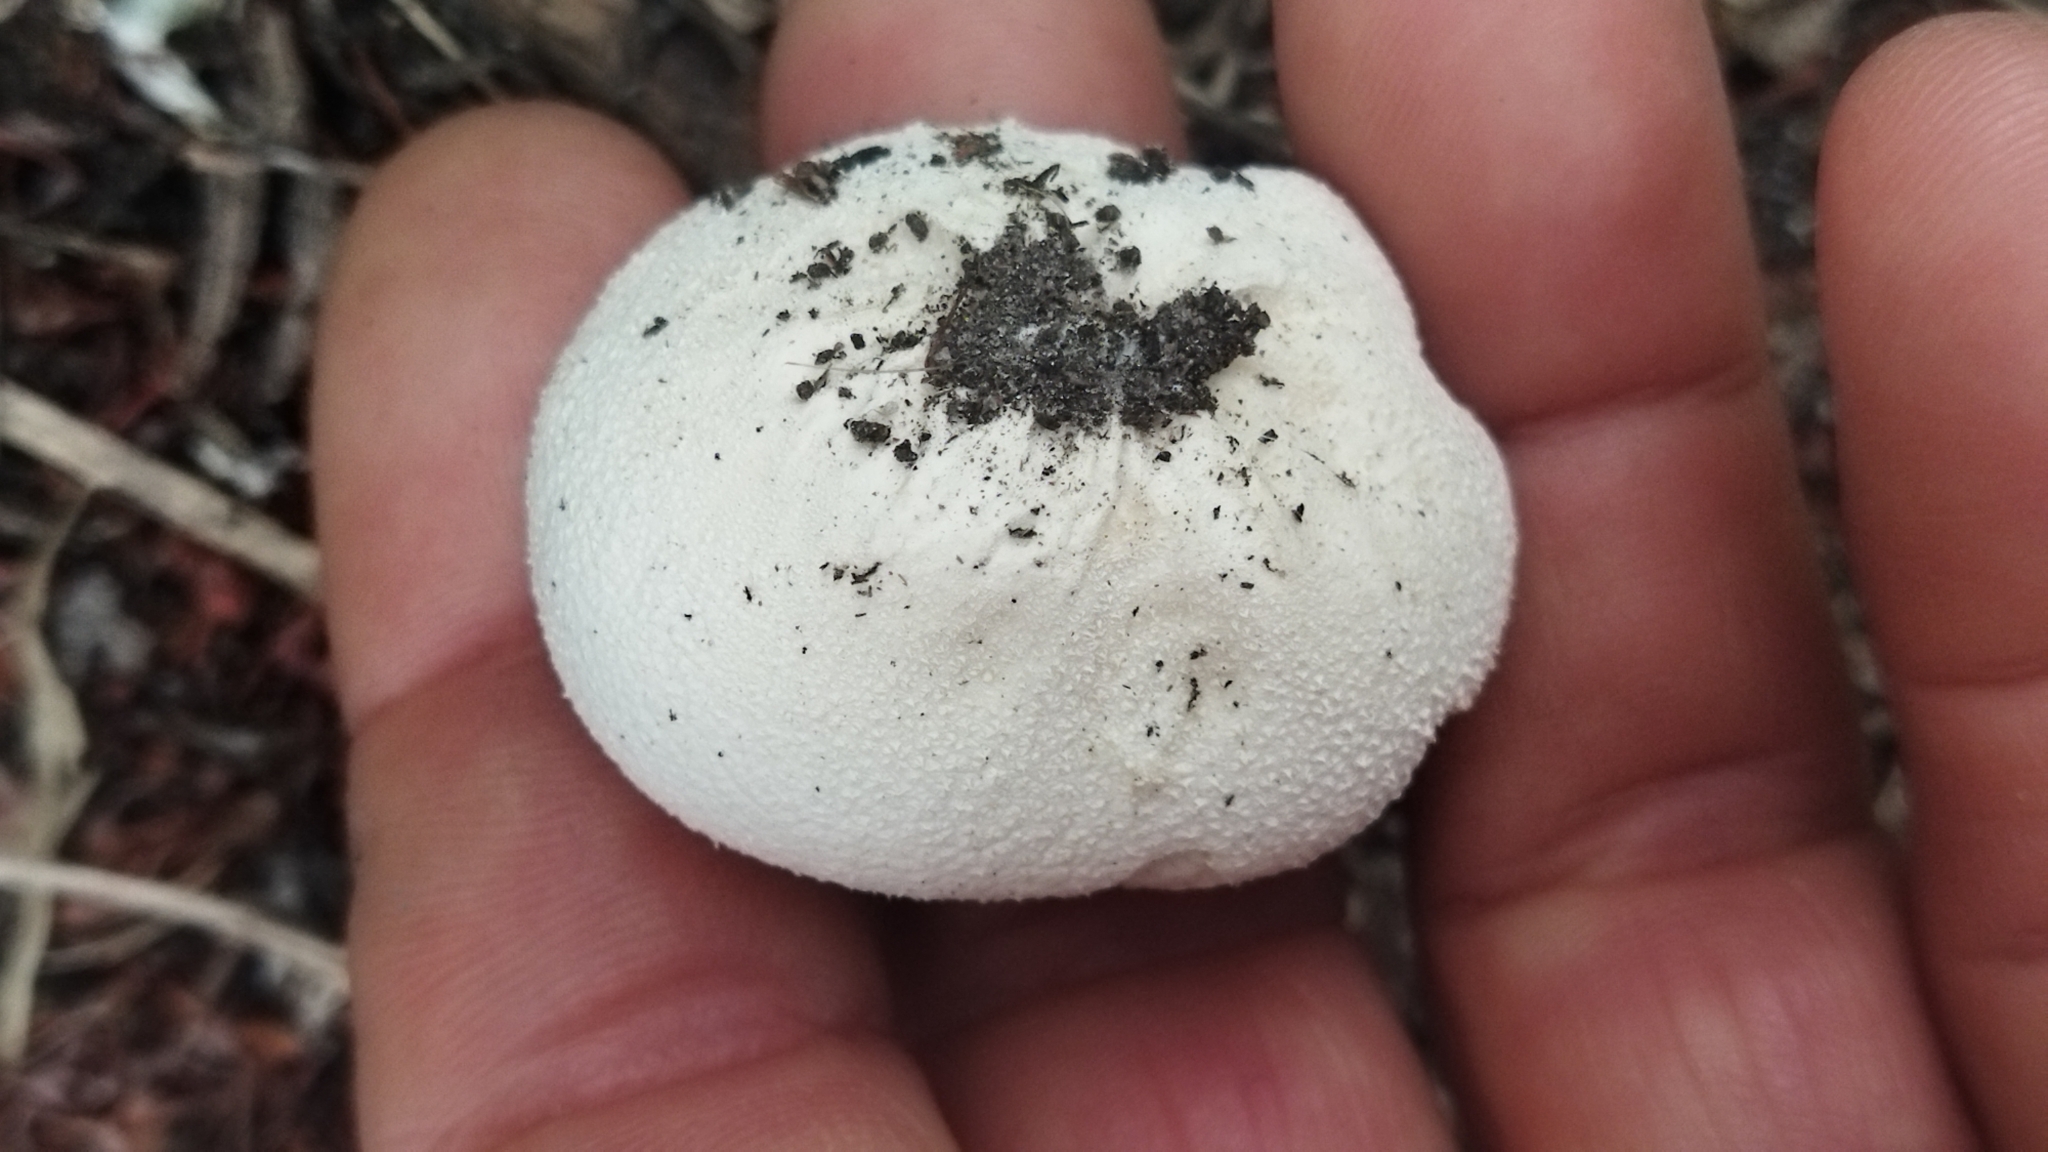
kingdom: Fungi
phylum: Basidiomycota
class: Agaricomycetes
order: Agaricales
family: Lycoperdaceae
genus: Lycoperdon
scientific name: Lycoperdon pratense
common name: Meadow puffball
